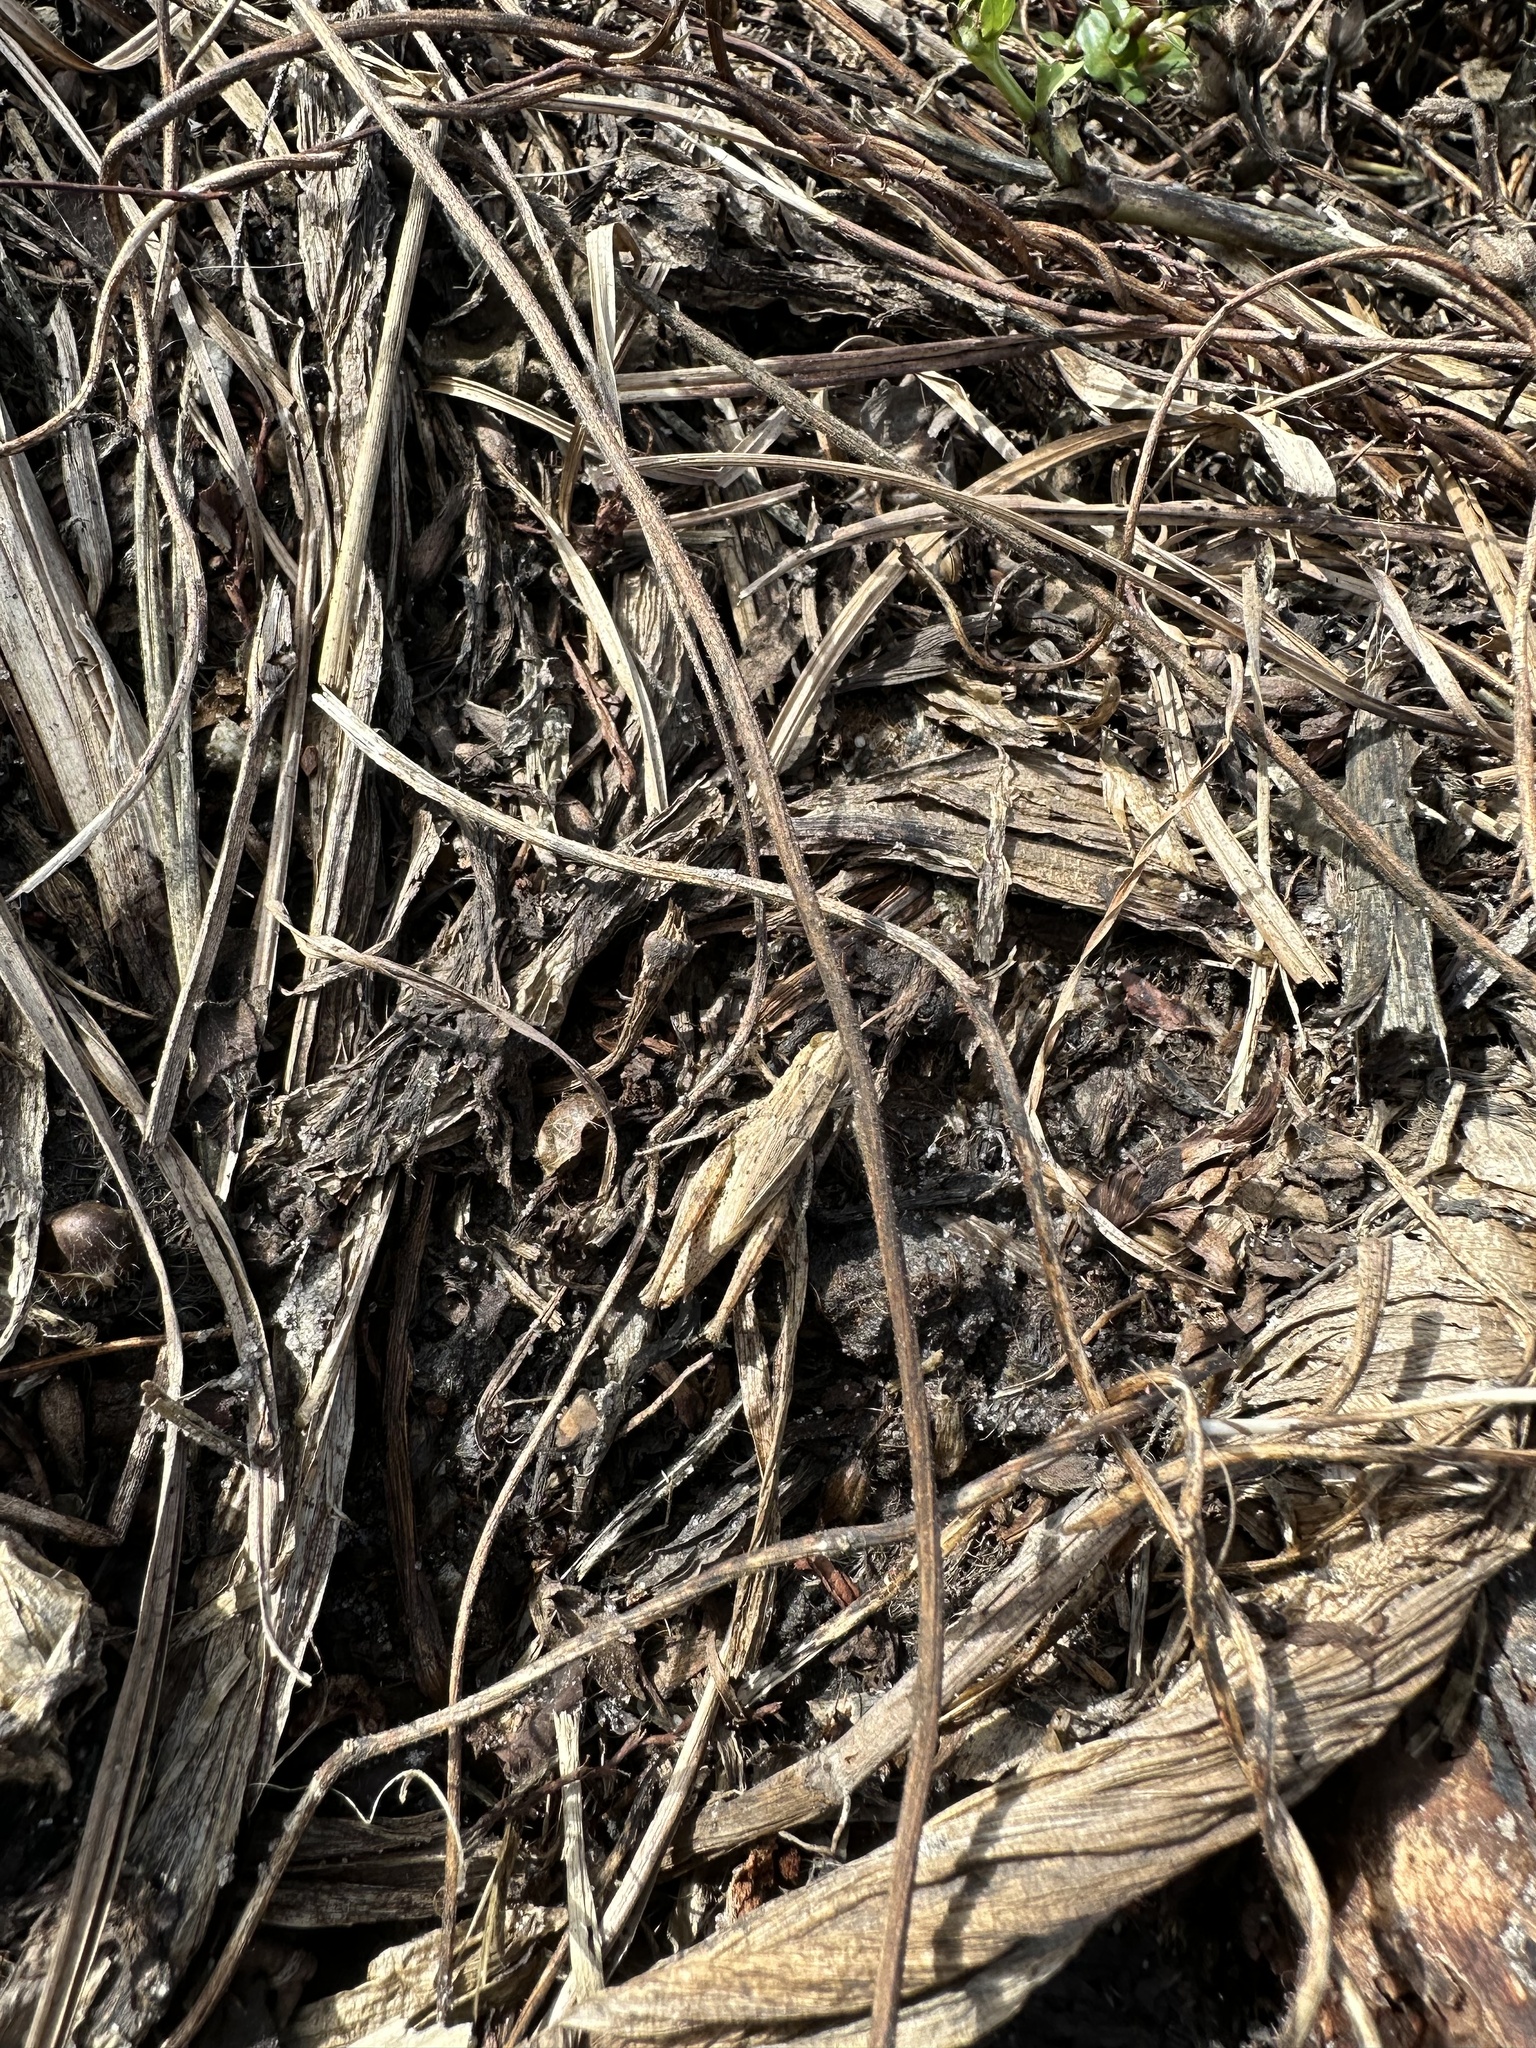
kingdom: Animalia
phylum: Arthropoda
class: Insecta
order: Orthoptera
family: Acrididae
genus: Dichromorpha
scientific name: Dichromorpha viridis
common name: Short-winged green grasshopper
